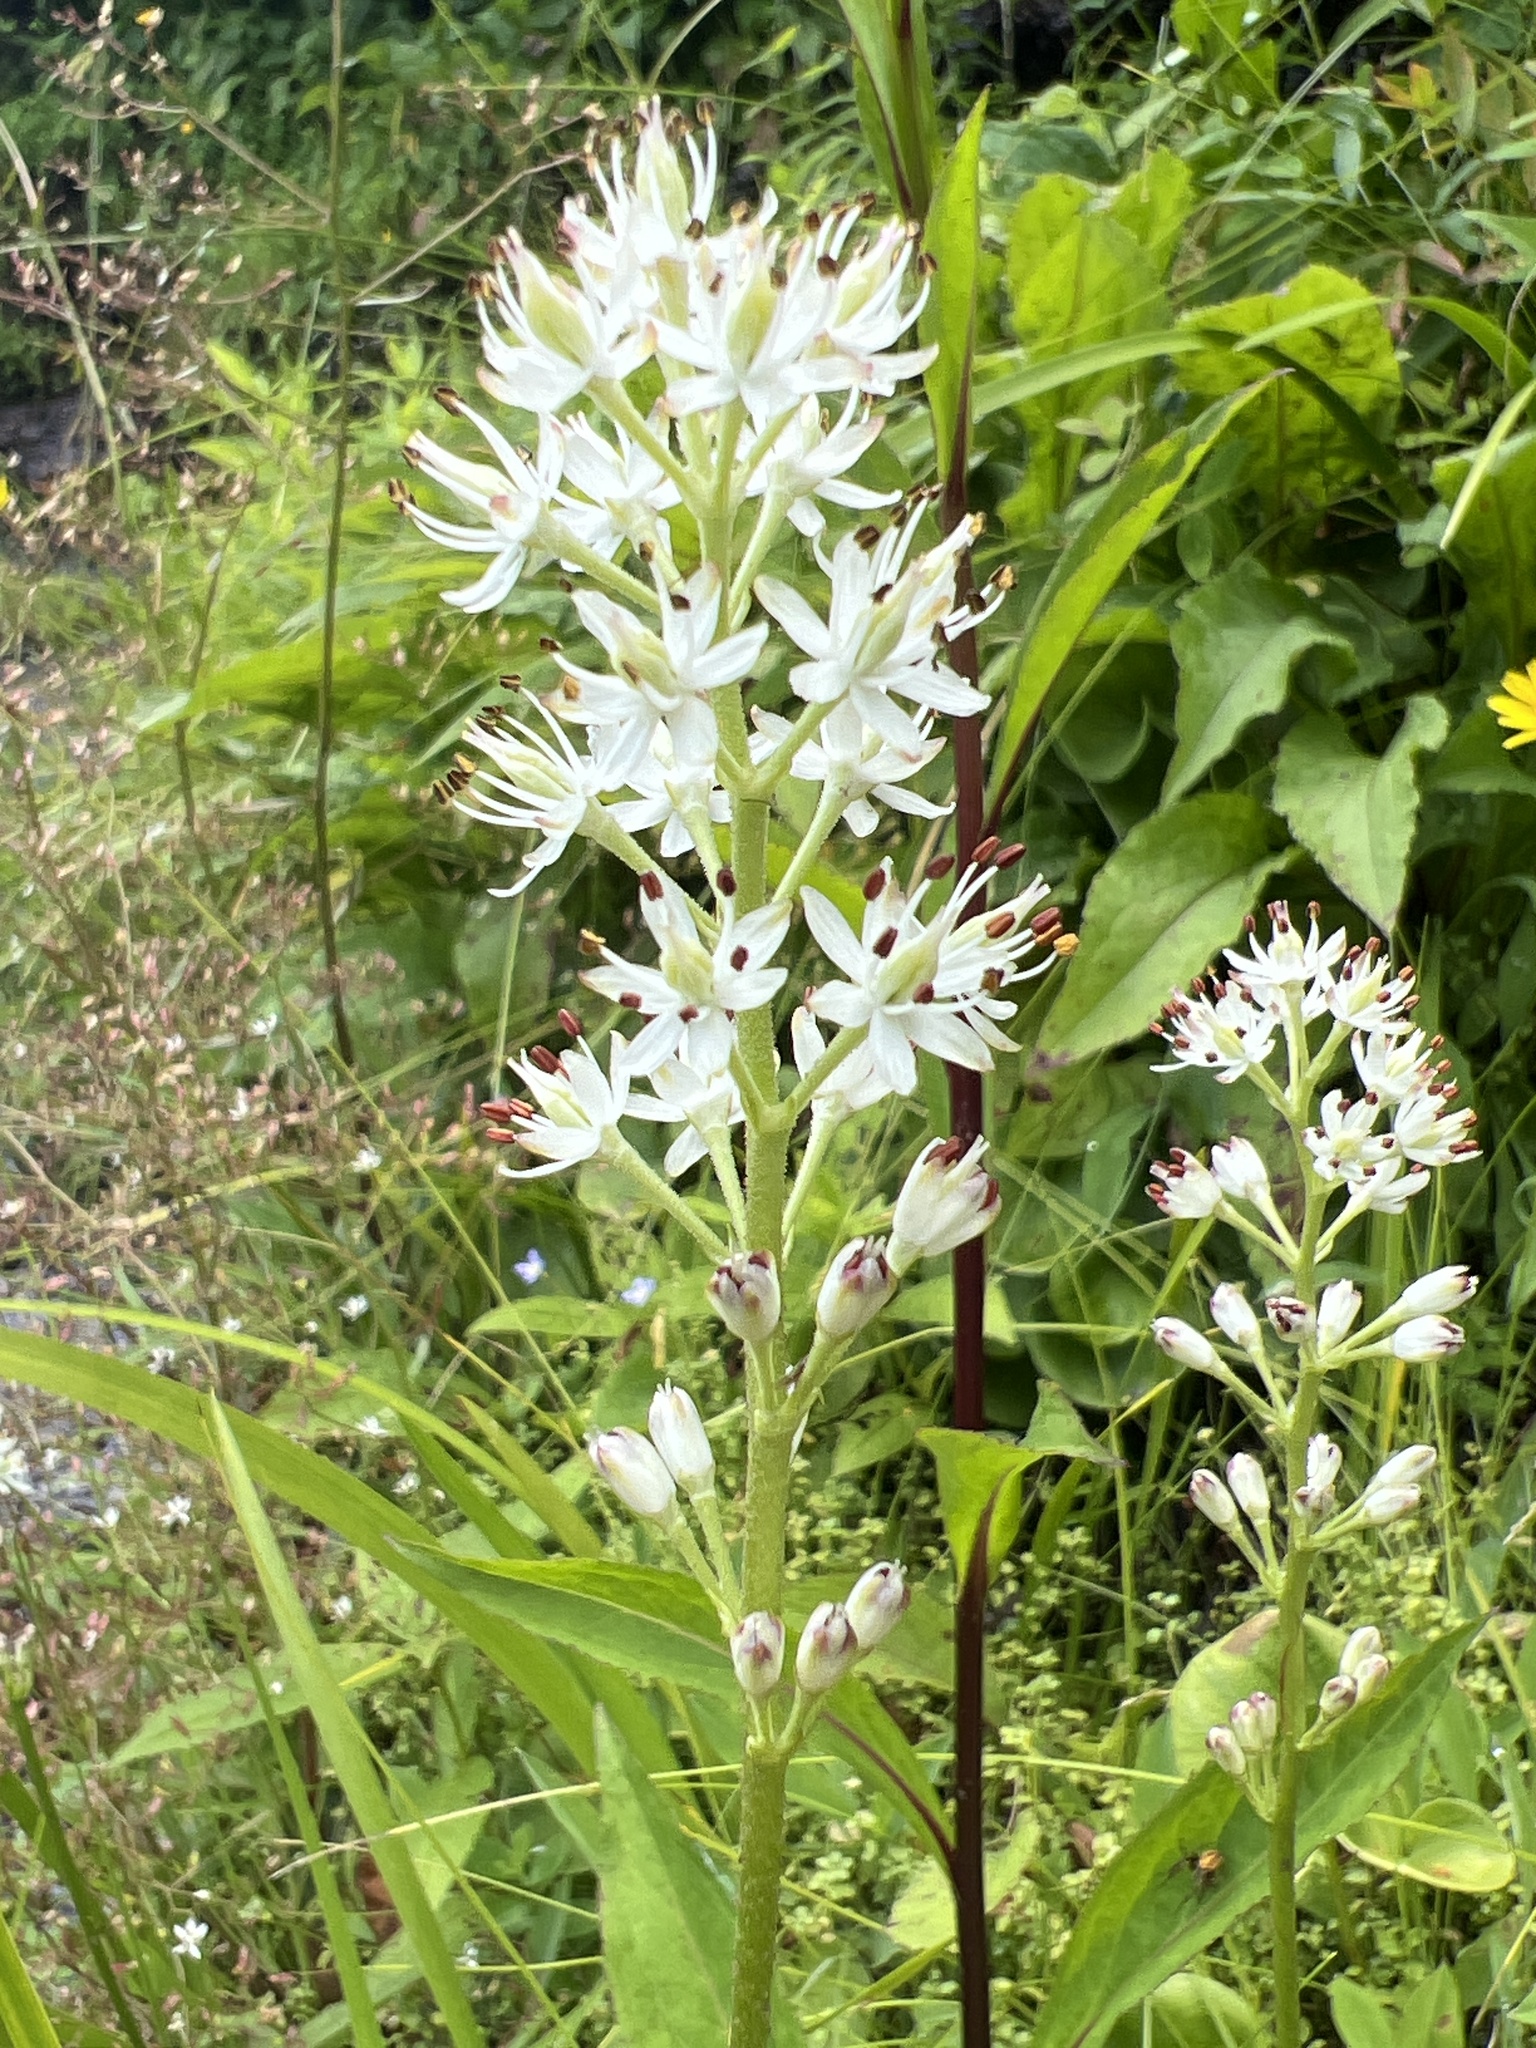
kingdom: Plantae
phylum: Tracheophyta
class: Liliopsida
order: Alismatales
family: Tofieldiaceae
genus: Triantha
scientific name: Triantha glutinosa
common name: Glutinous tofieldia
